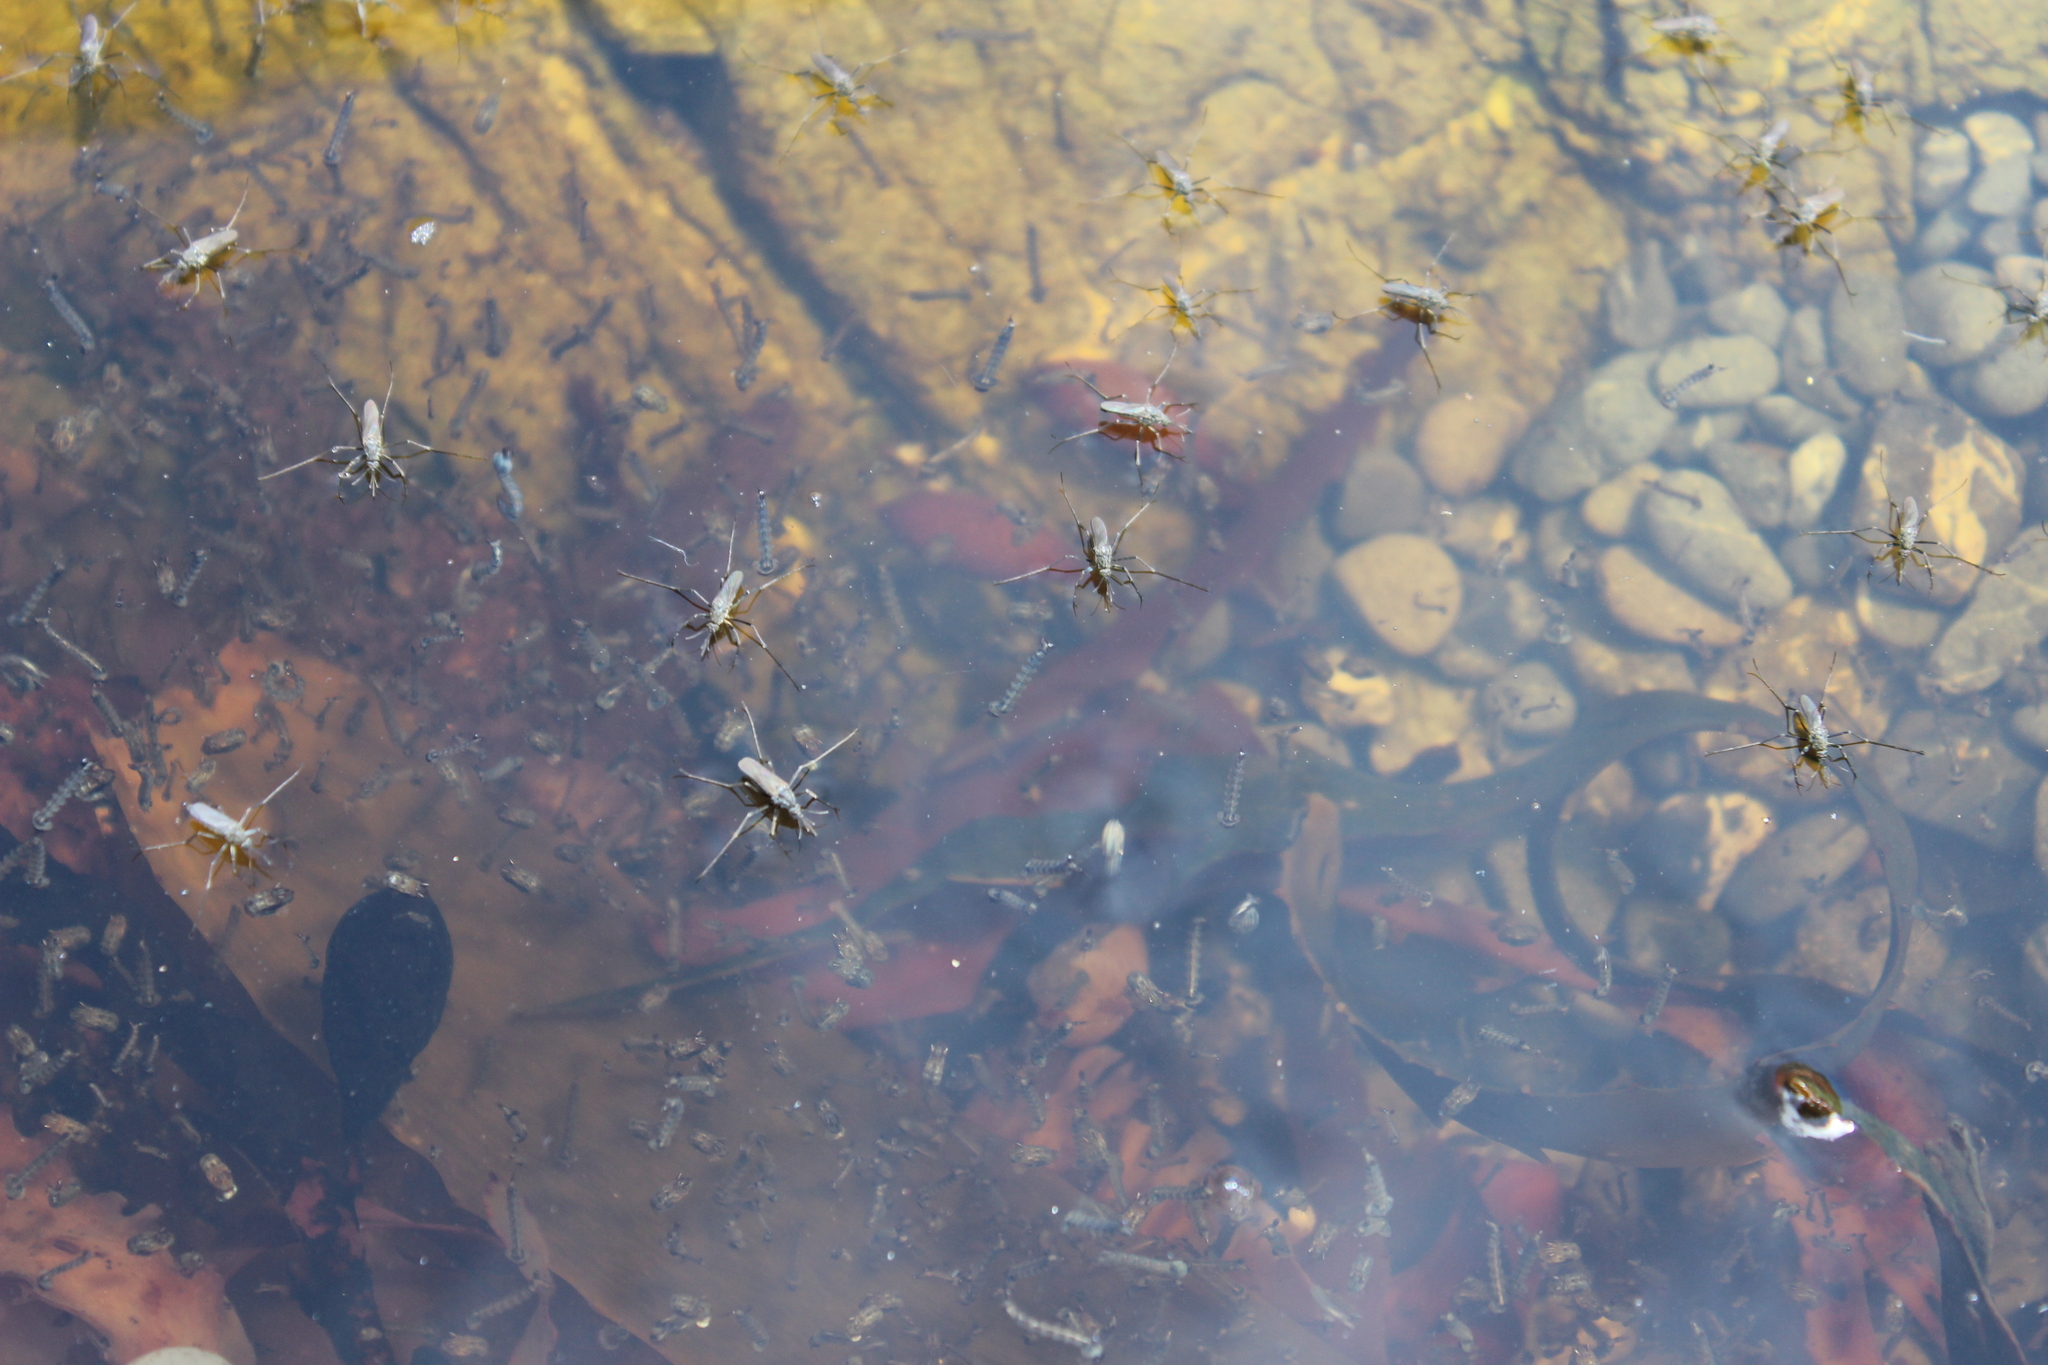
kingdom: Animalia
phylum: Arthropoda
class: Insecta
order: Diptera
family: Culicidae
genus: Opifex
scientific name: Opifex fuscus
